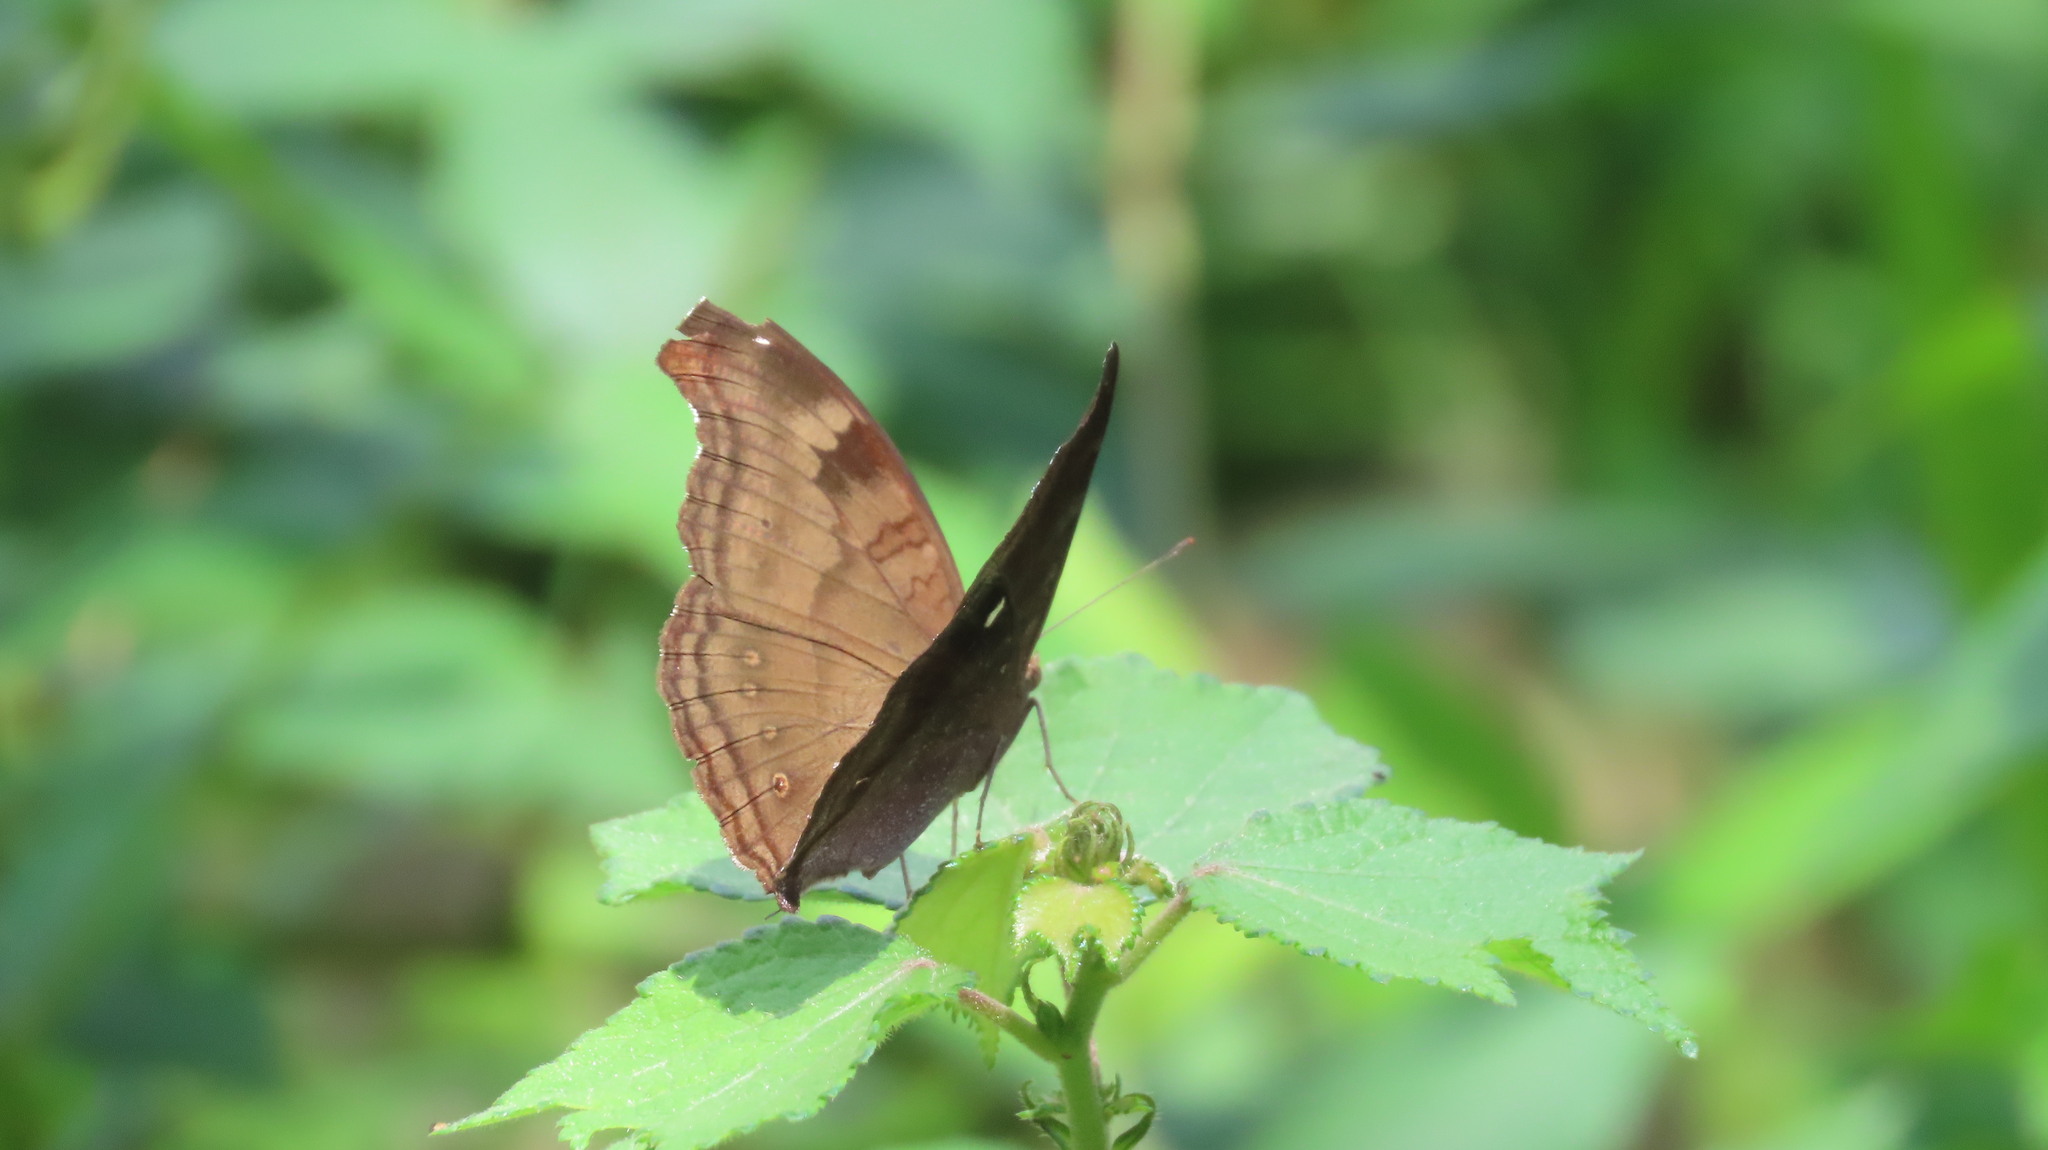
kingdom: Animalia
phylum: Arthropoda
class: Insecta
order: Lepidoptera
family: Nymphalidae
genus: Junonia
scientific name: Junonia iphita
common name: Chocolate pansy
